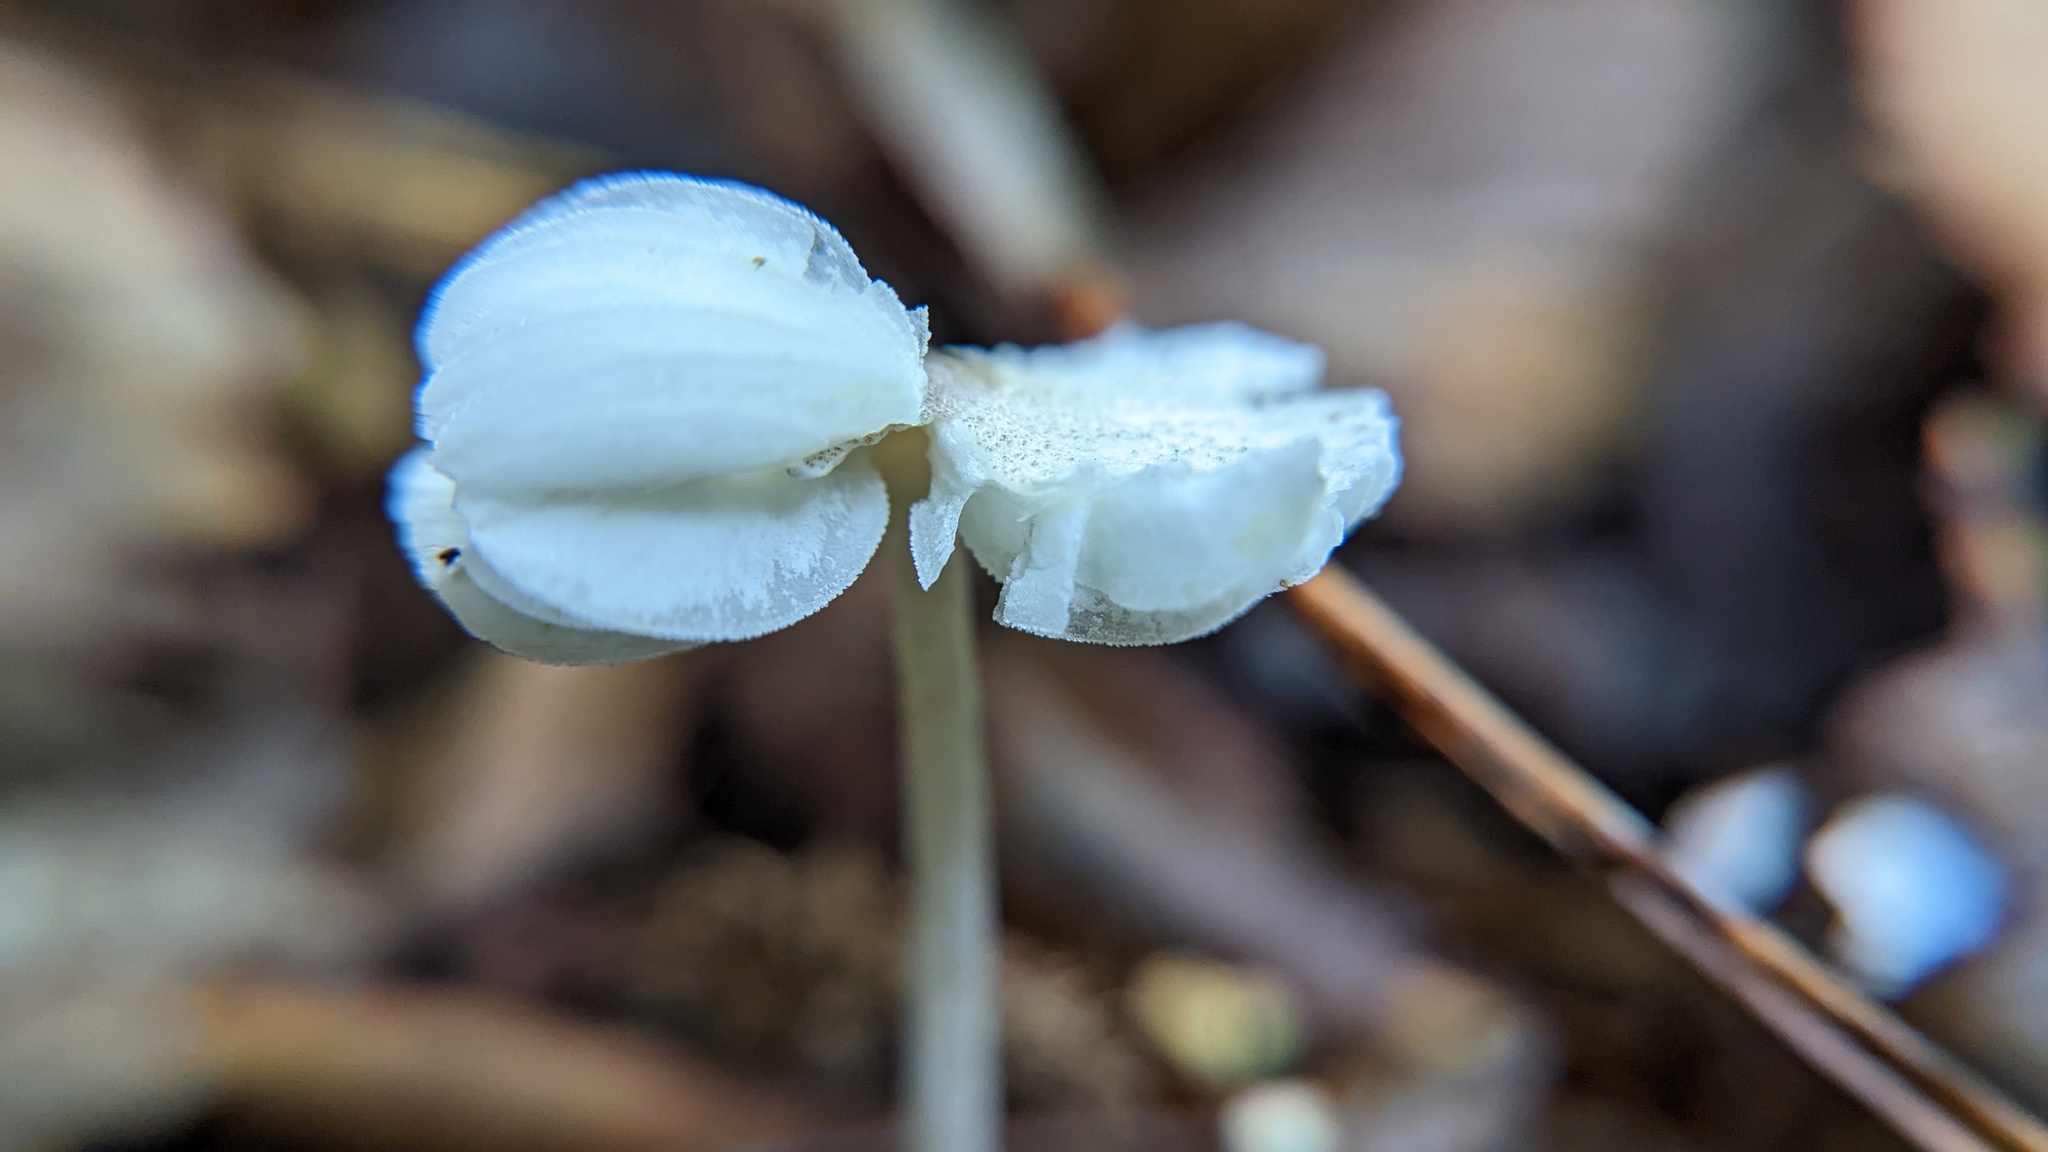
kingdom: Fungi
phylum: Basidiomycota
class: Agaricomycetes
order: Agaricales
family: Agaricaceae
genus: Leucocoprinus
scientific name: Leucocoprinus brebissonii
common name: Skullcap dapperling
